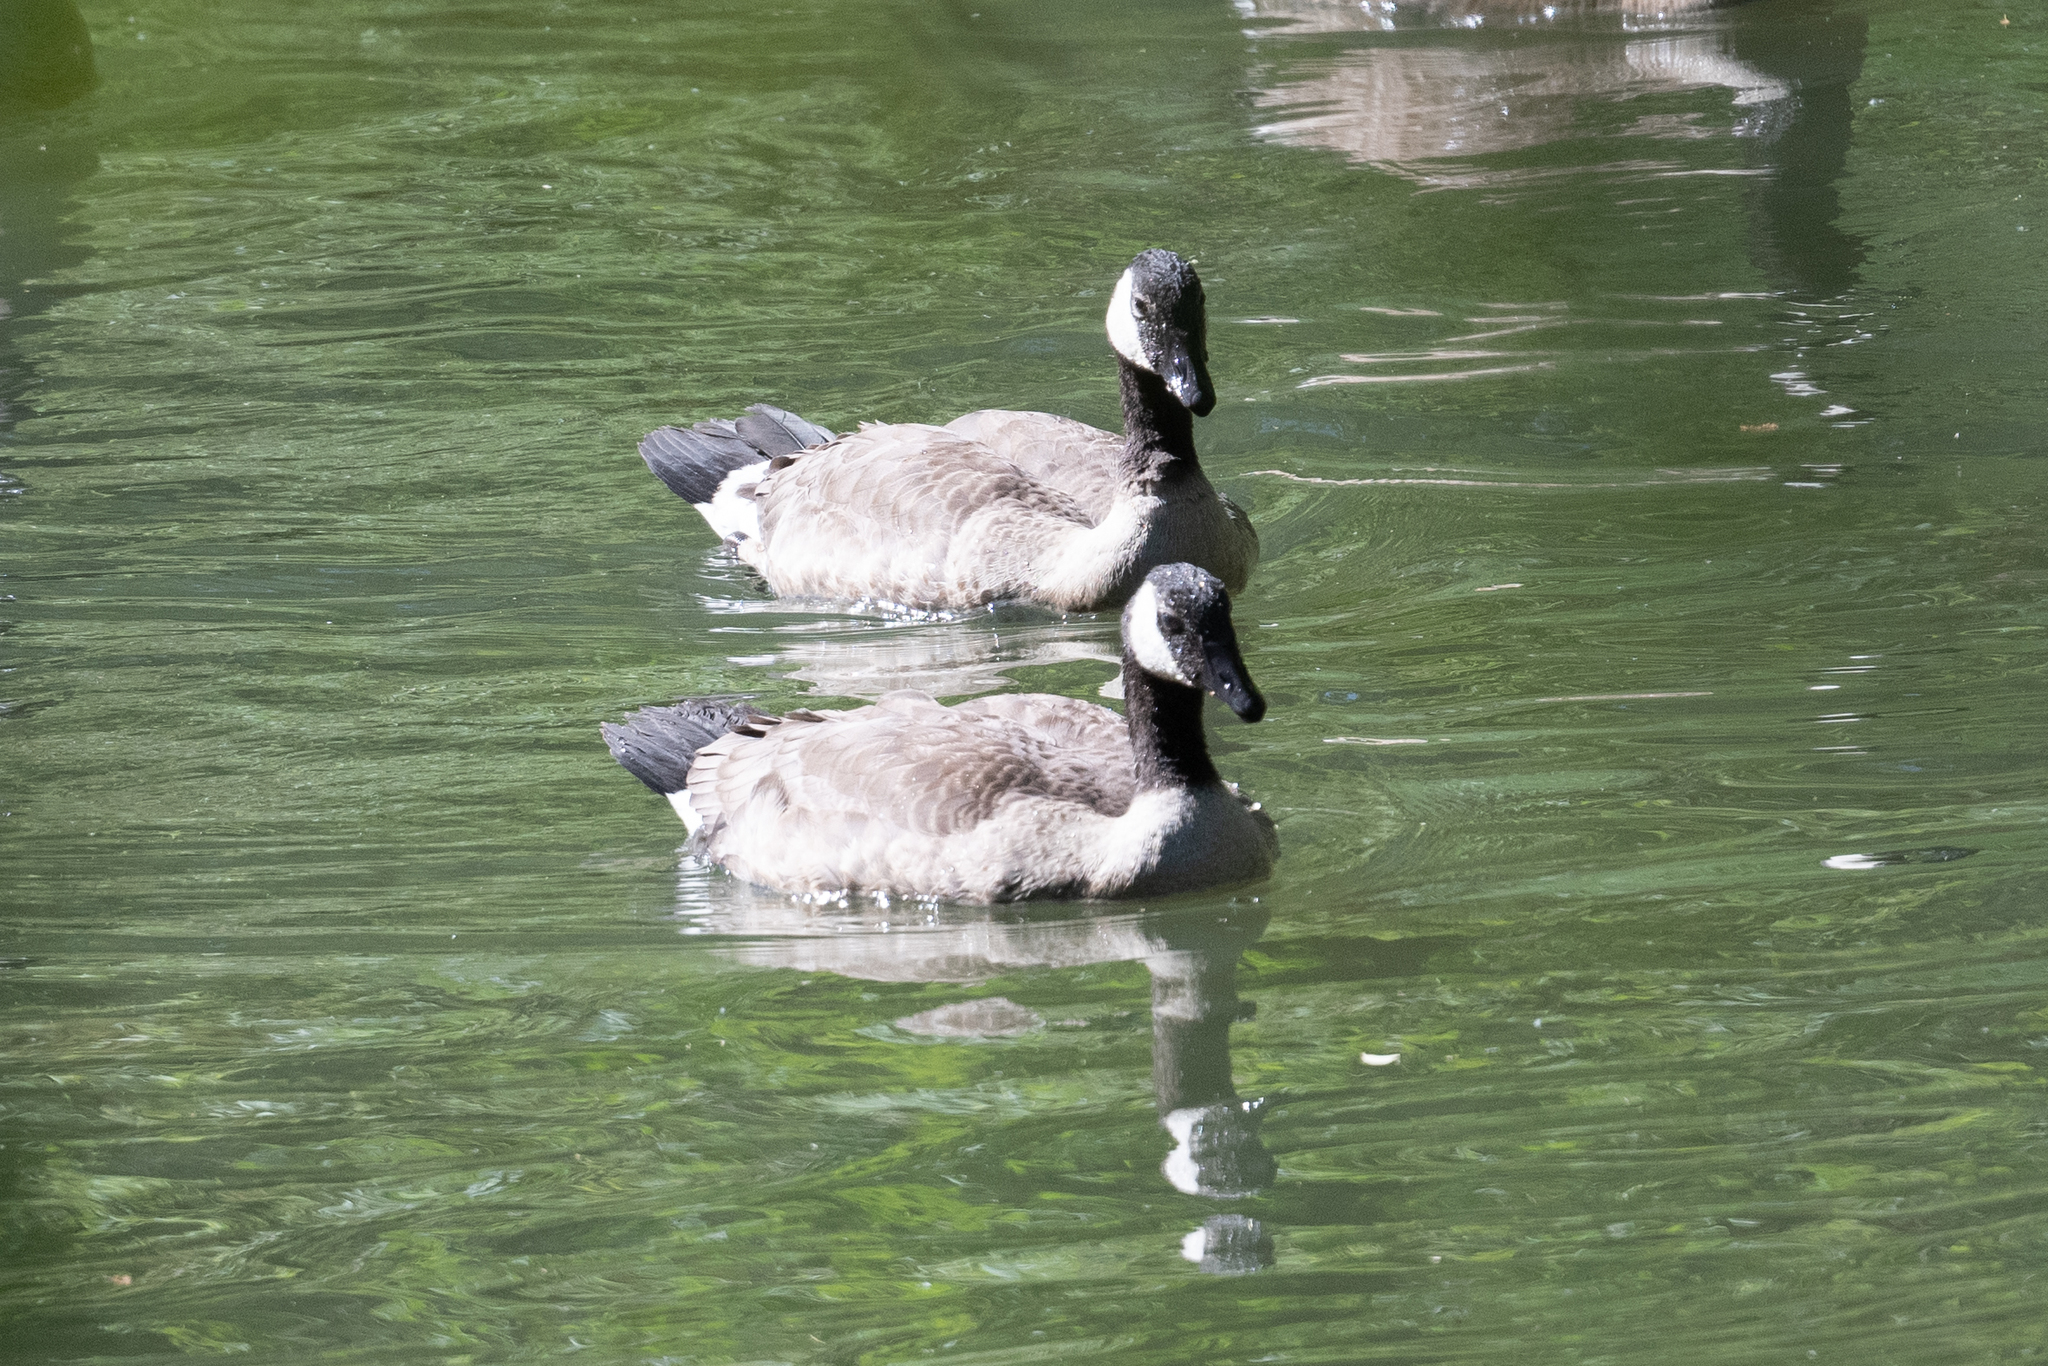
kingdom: Animalia
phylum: Chordata
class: Aves
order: Anseriformes
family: Anatidae
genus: Branta
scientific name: Branta canadensis
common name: Canada goose
